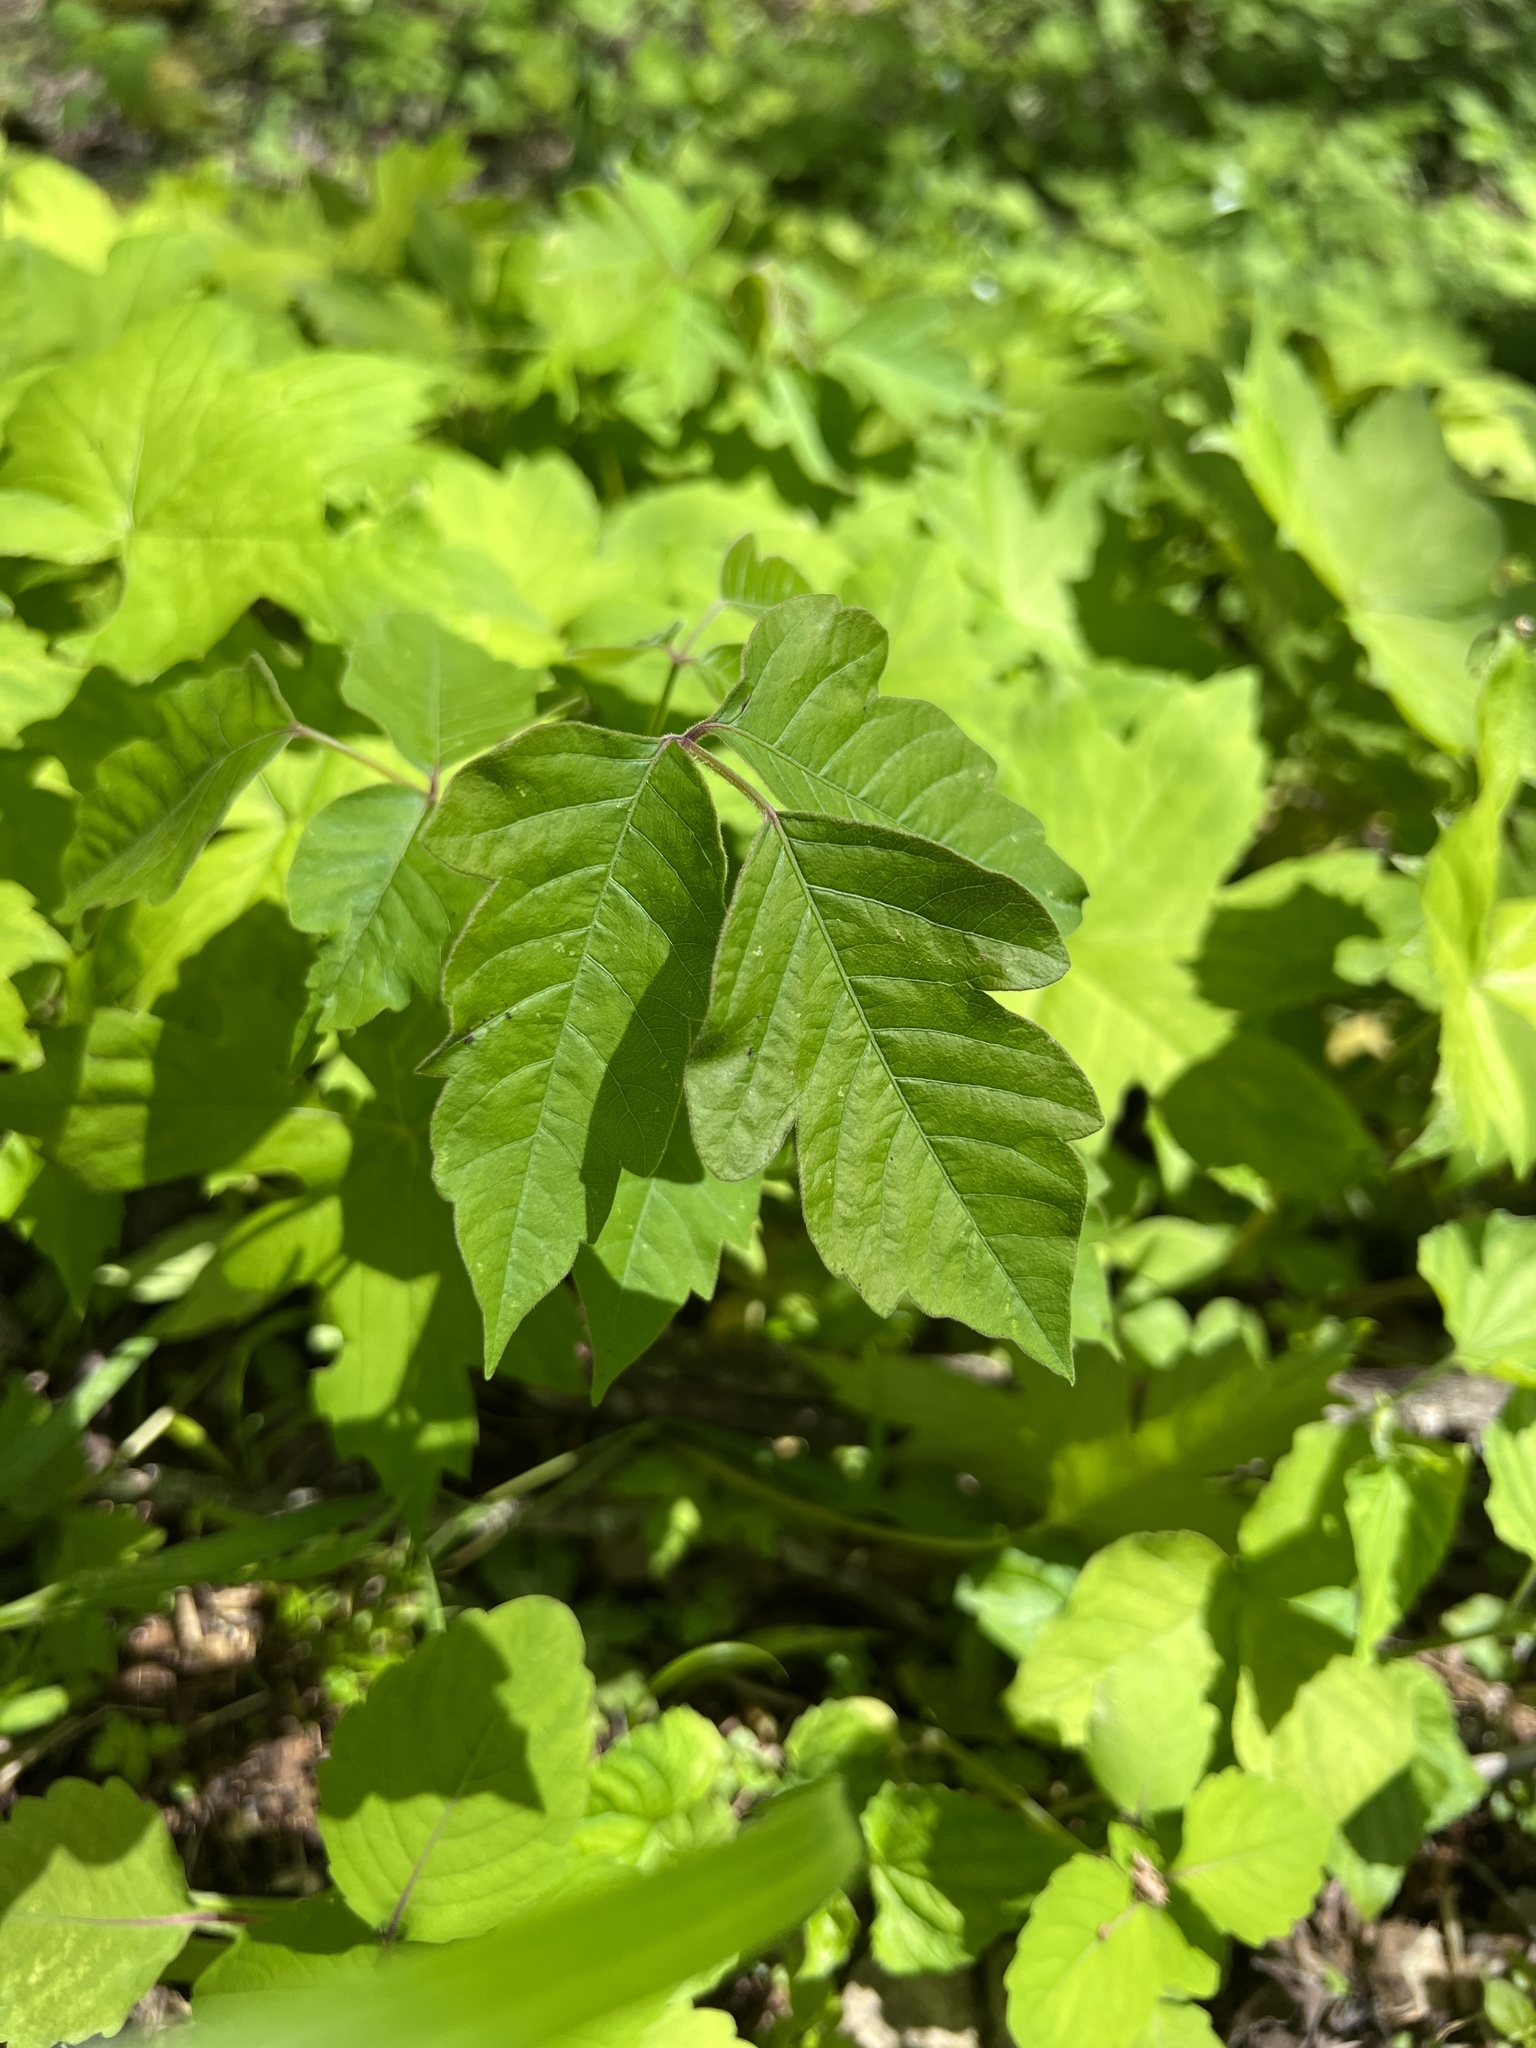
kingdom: Plantae
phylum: Tracheophyta
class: Magnoliopsida
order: Sapindales
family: Anacardiaceae
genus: Toxicodendron
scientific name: Toxicodendron radicans
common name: Poison ivy
